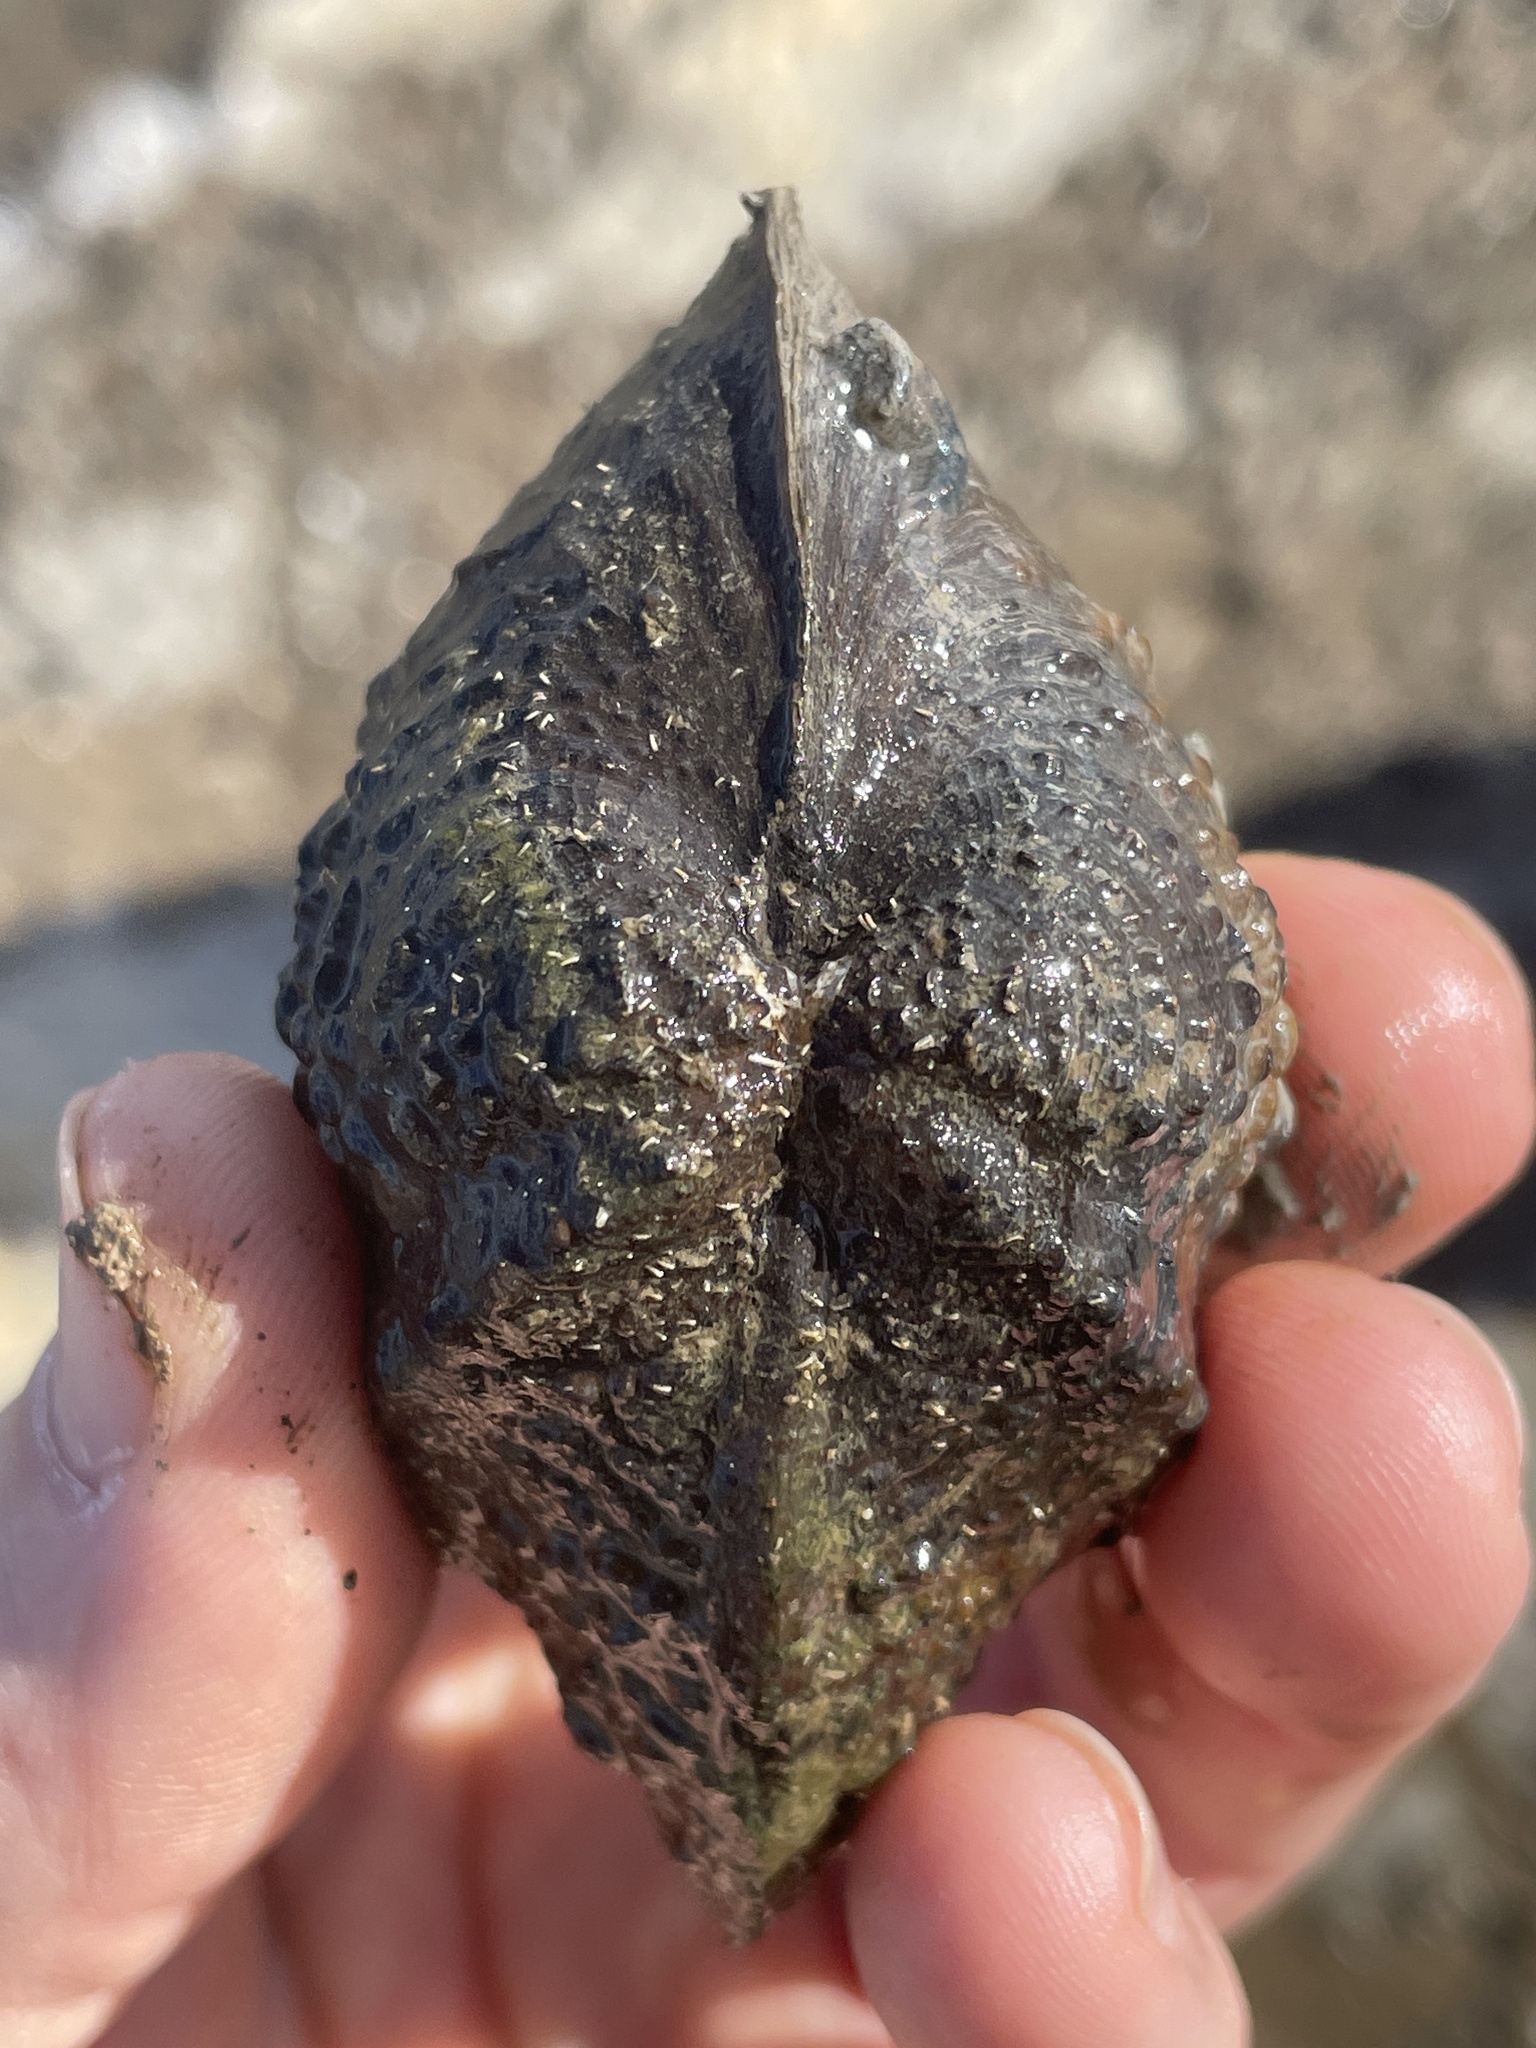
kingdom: Animalia
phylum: Mollusca
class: Bivalvia
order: Unionida
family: Unionidae
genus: Quadrula
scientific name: Quadrula quadrula
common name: Mapleleaf
